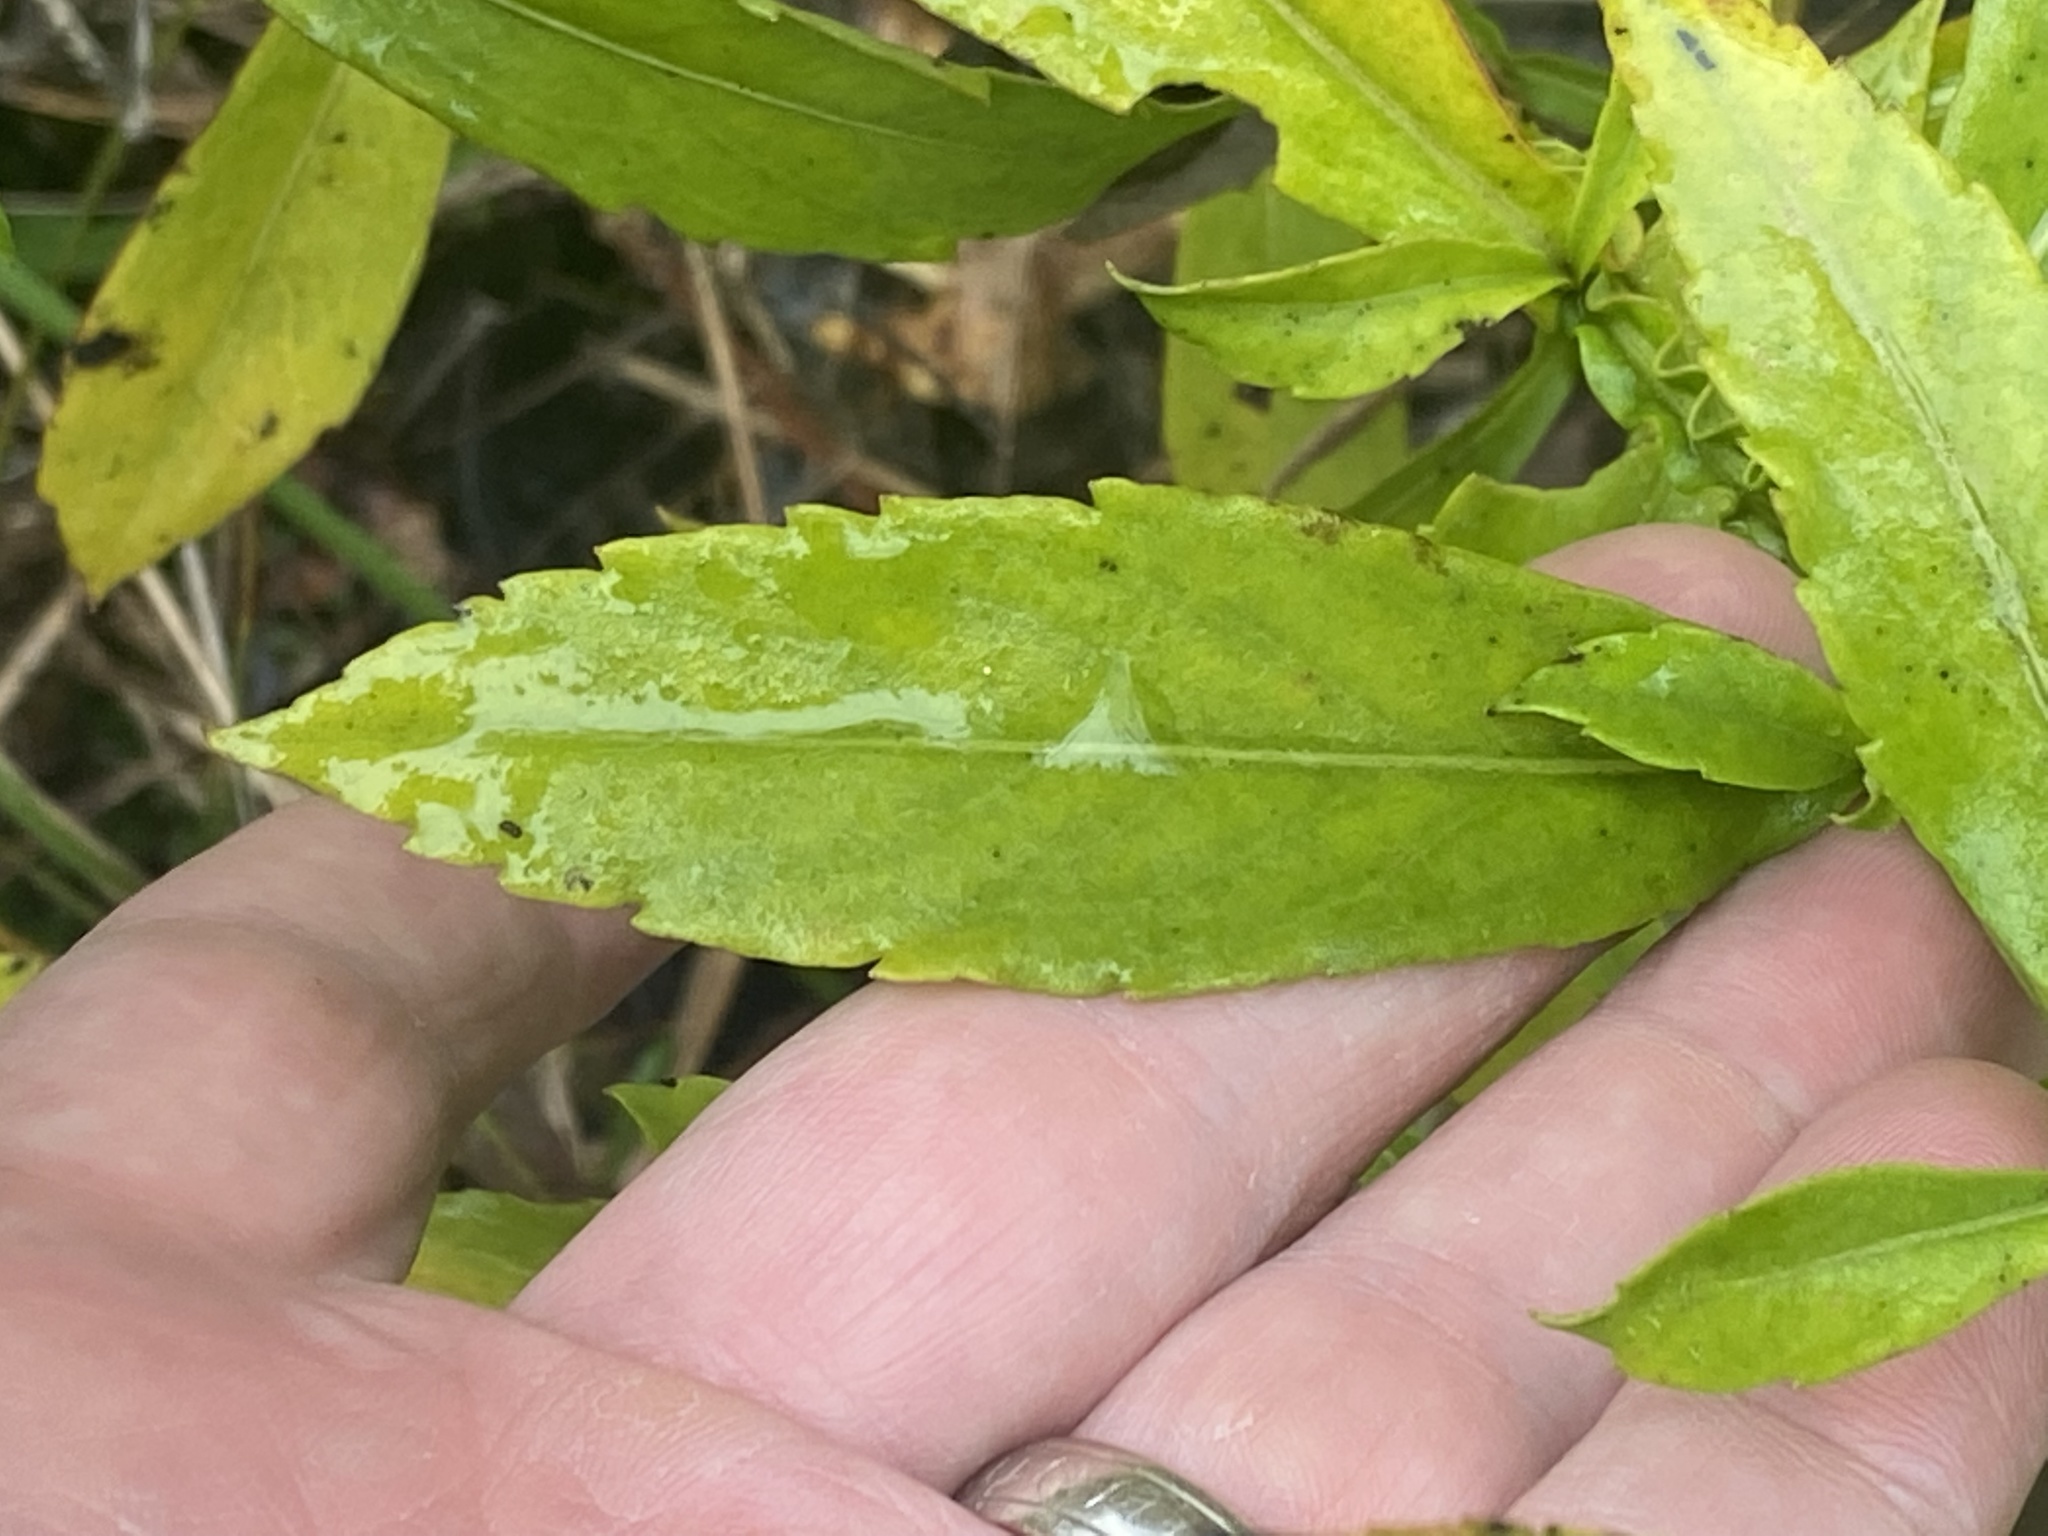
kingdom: Plantae
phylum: Tracheophyta
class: Magnoliopsida
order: Asterales
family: Asteraceae
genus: Helenium
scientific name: Helenium autumnale
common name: Sneezeweed
